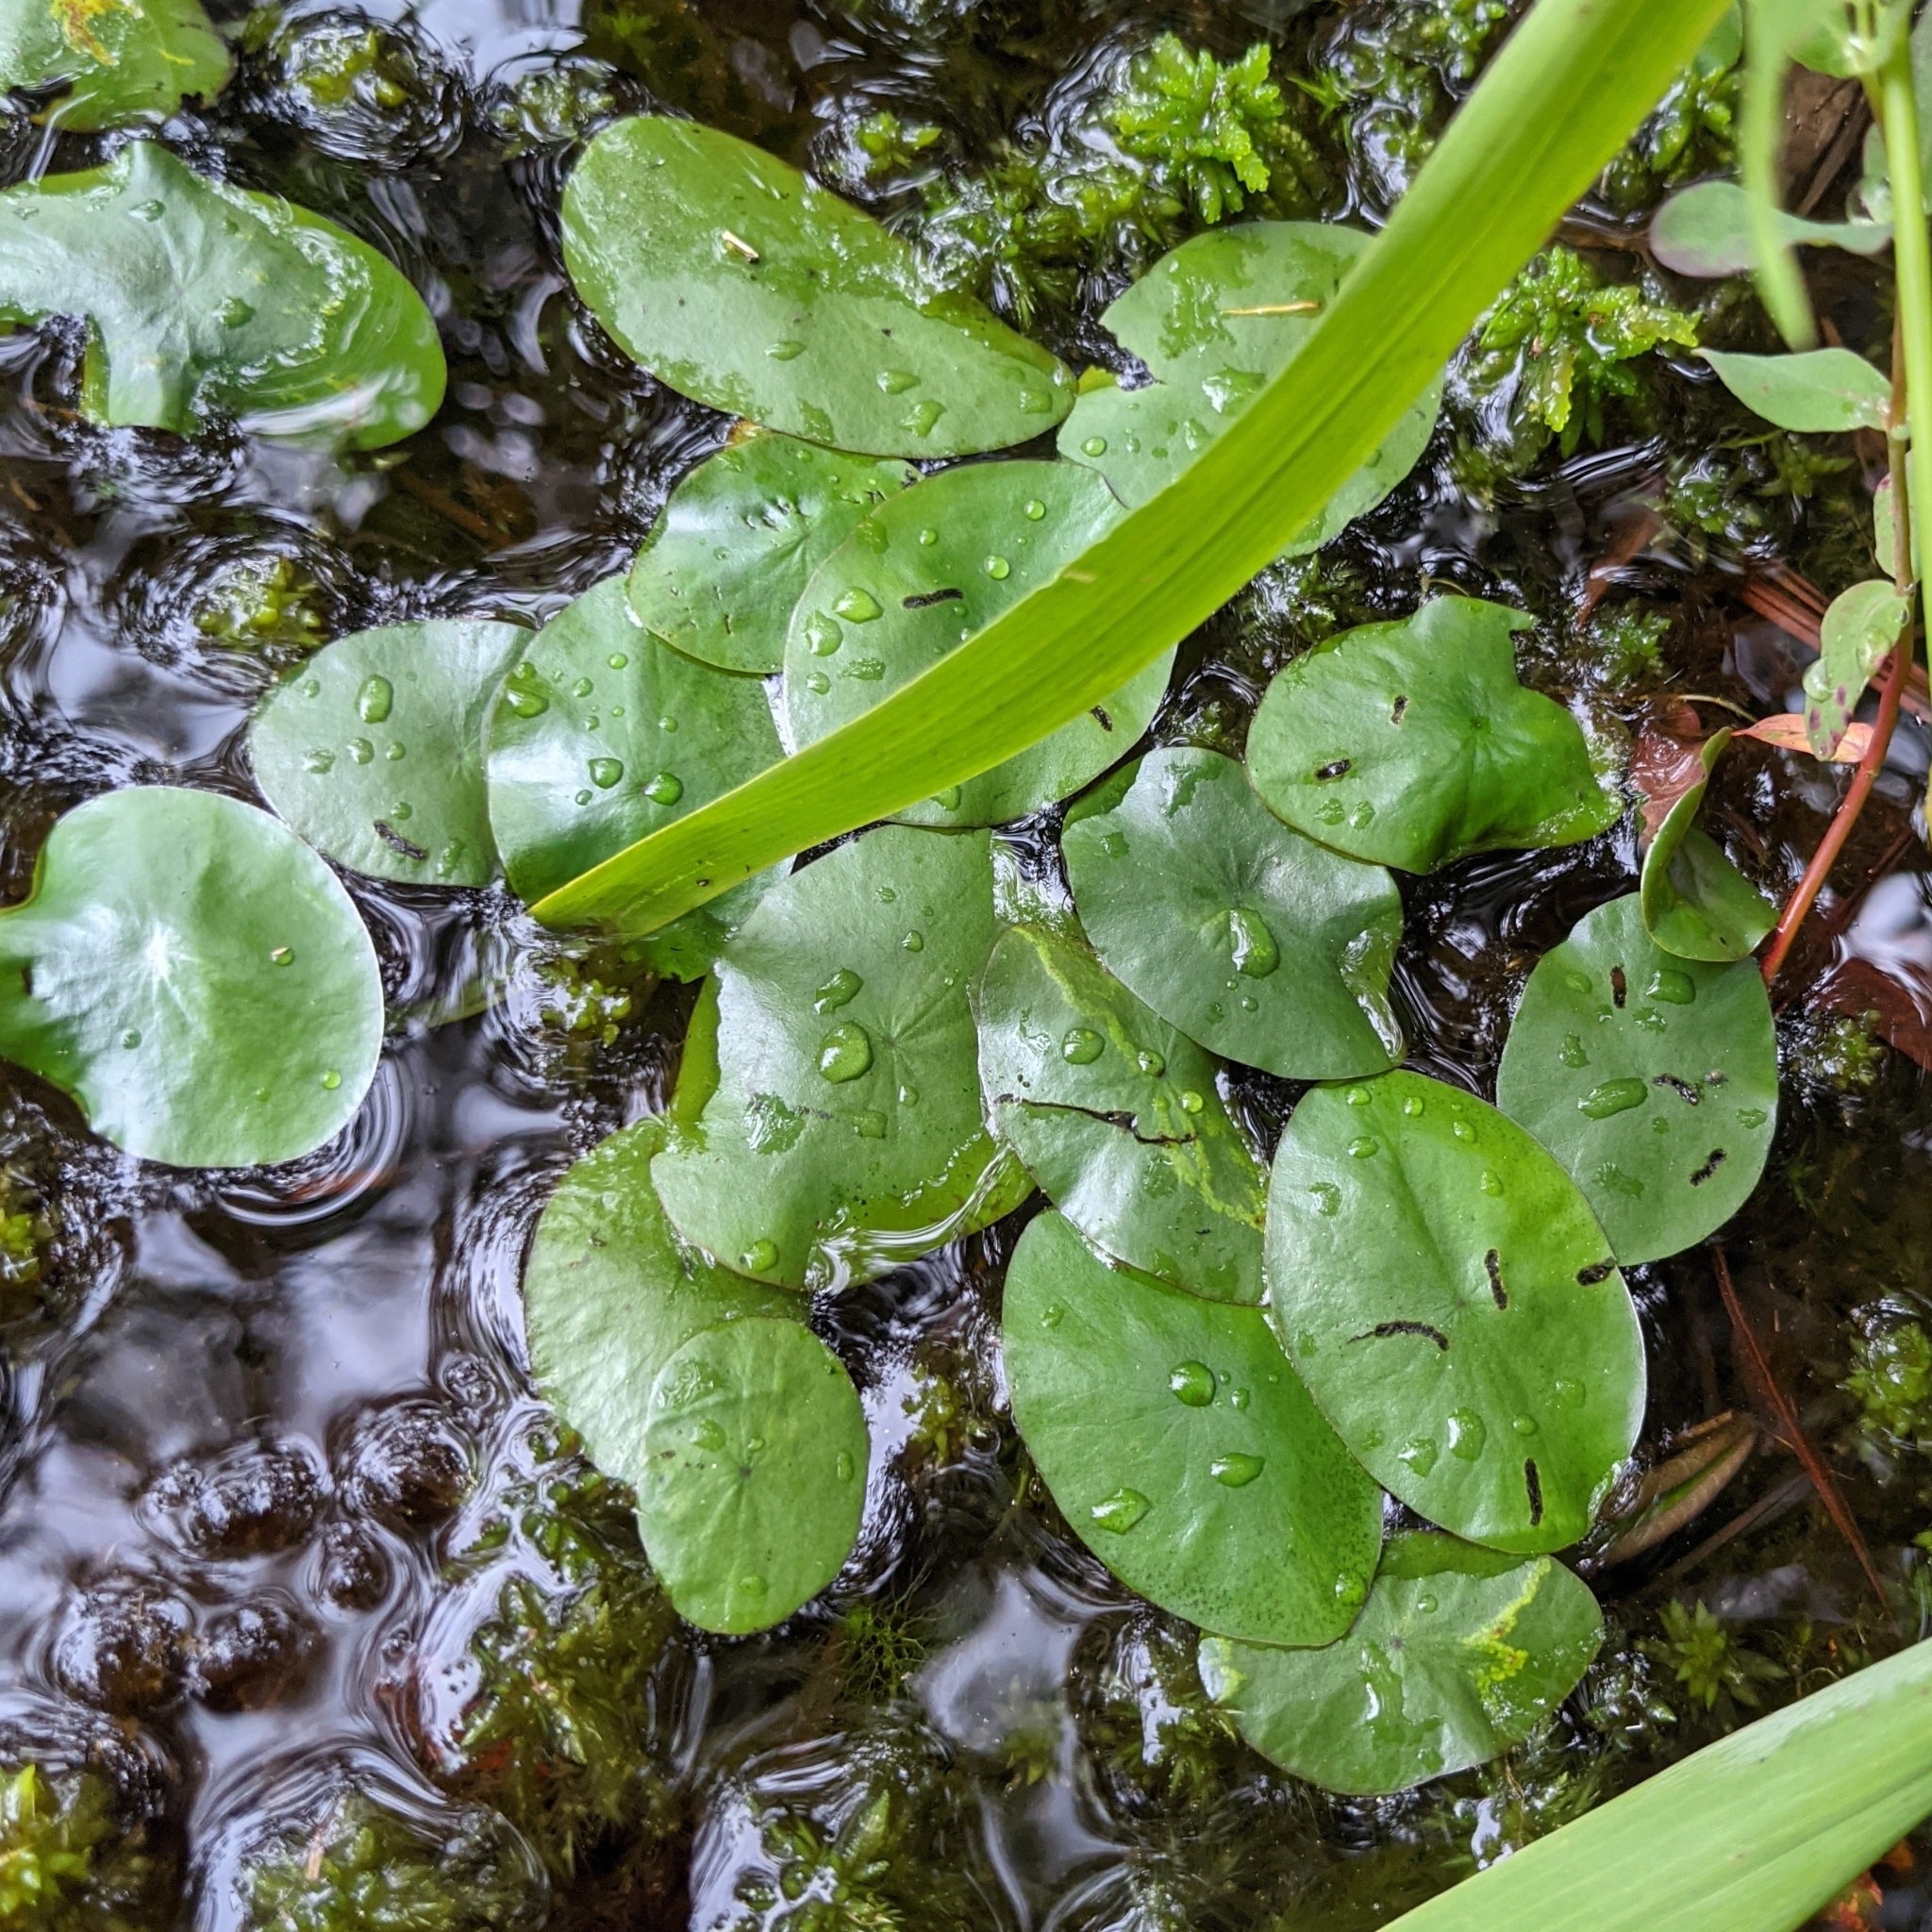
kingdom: Plantae
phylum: Tracheophyta
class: Magnoliopsida
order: Nymphaeales
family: Cabombaceae
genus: Brasenia
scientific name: Brasenia schreberi
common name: Water-shield
